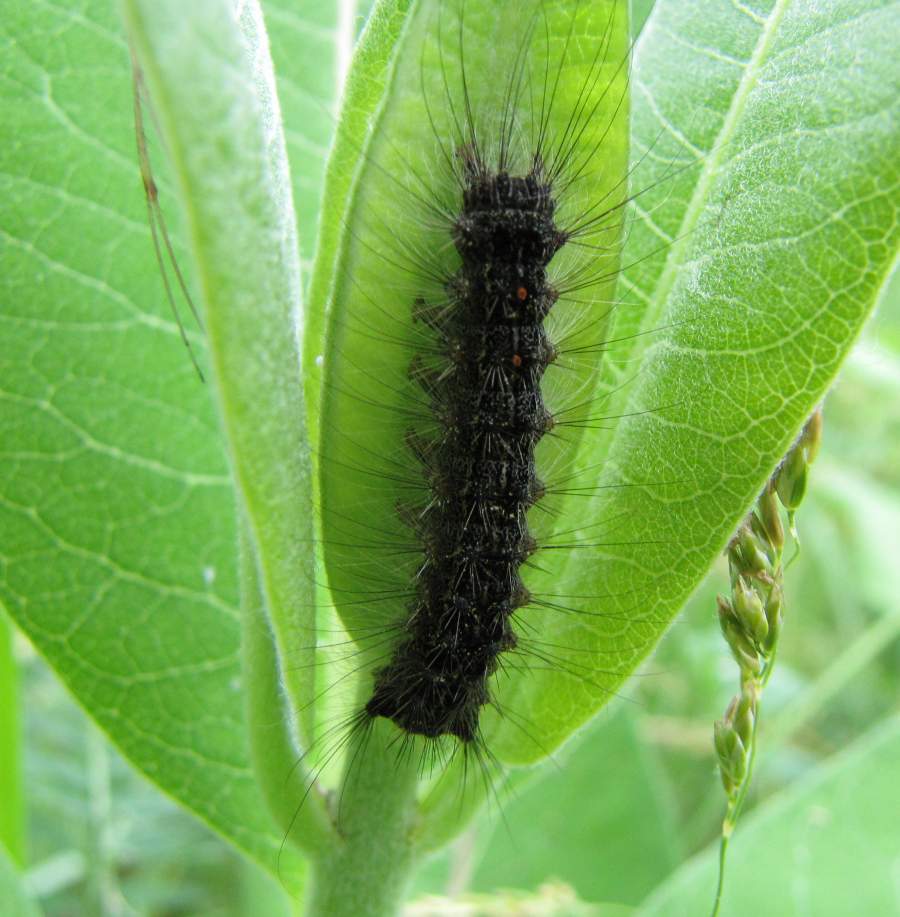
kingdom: Animalia
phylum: Arthropoda
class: Insecta
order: Lepidoptera
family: Erebidae
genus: Lymantria
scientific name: Lymantria dispar
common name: Gypsy moth
